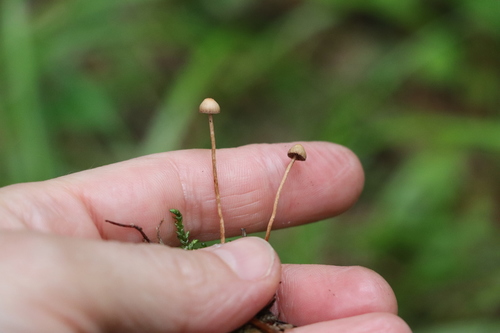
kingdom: Fungi
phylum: Basidiomycota
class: Agaricomycetes
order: Agaricales
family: Strophariaceae
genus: Deconica
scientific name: Deconica phyllogena
